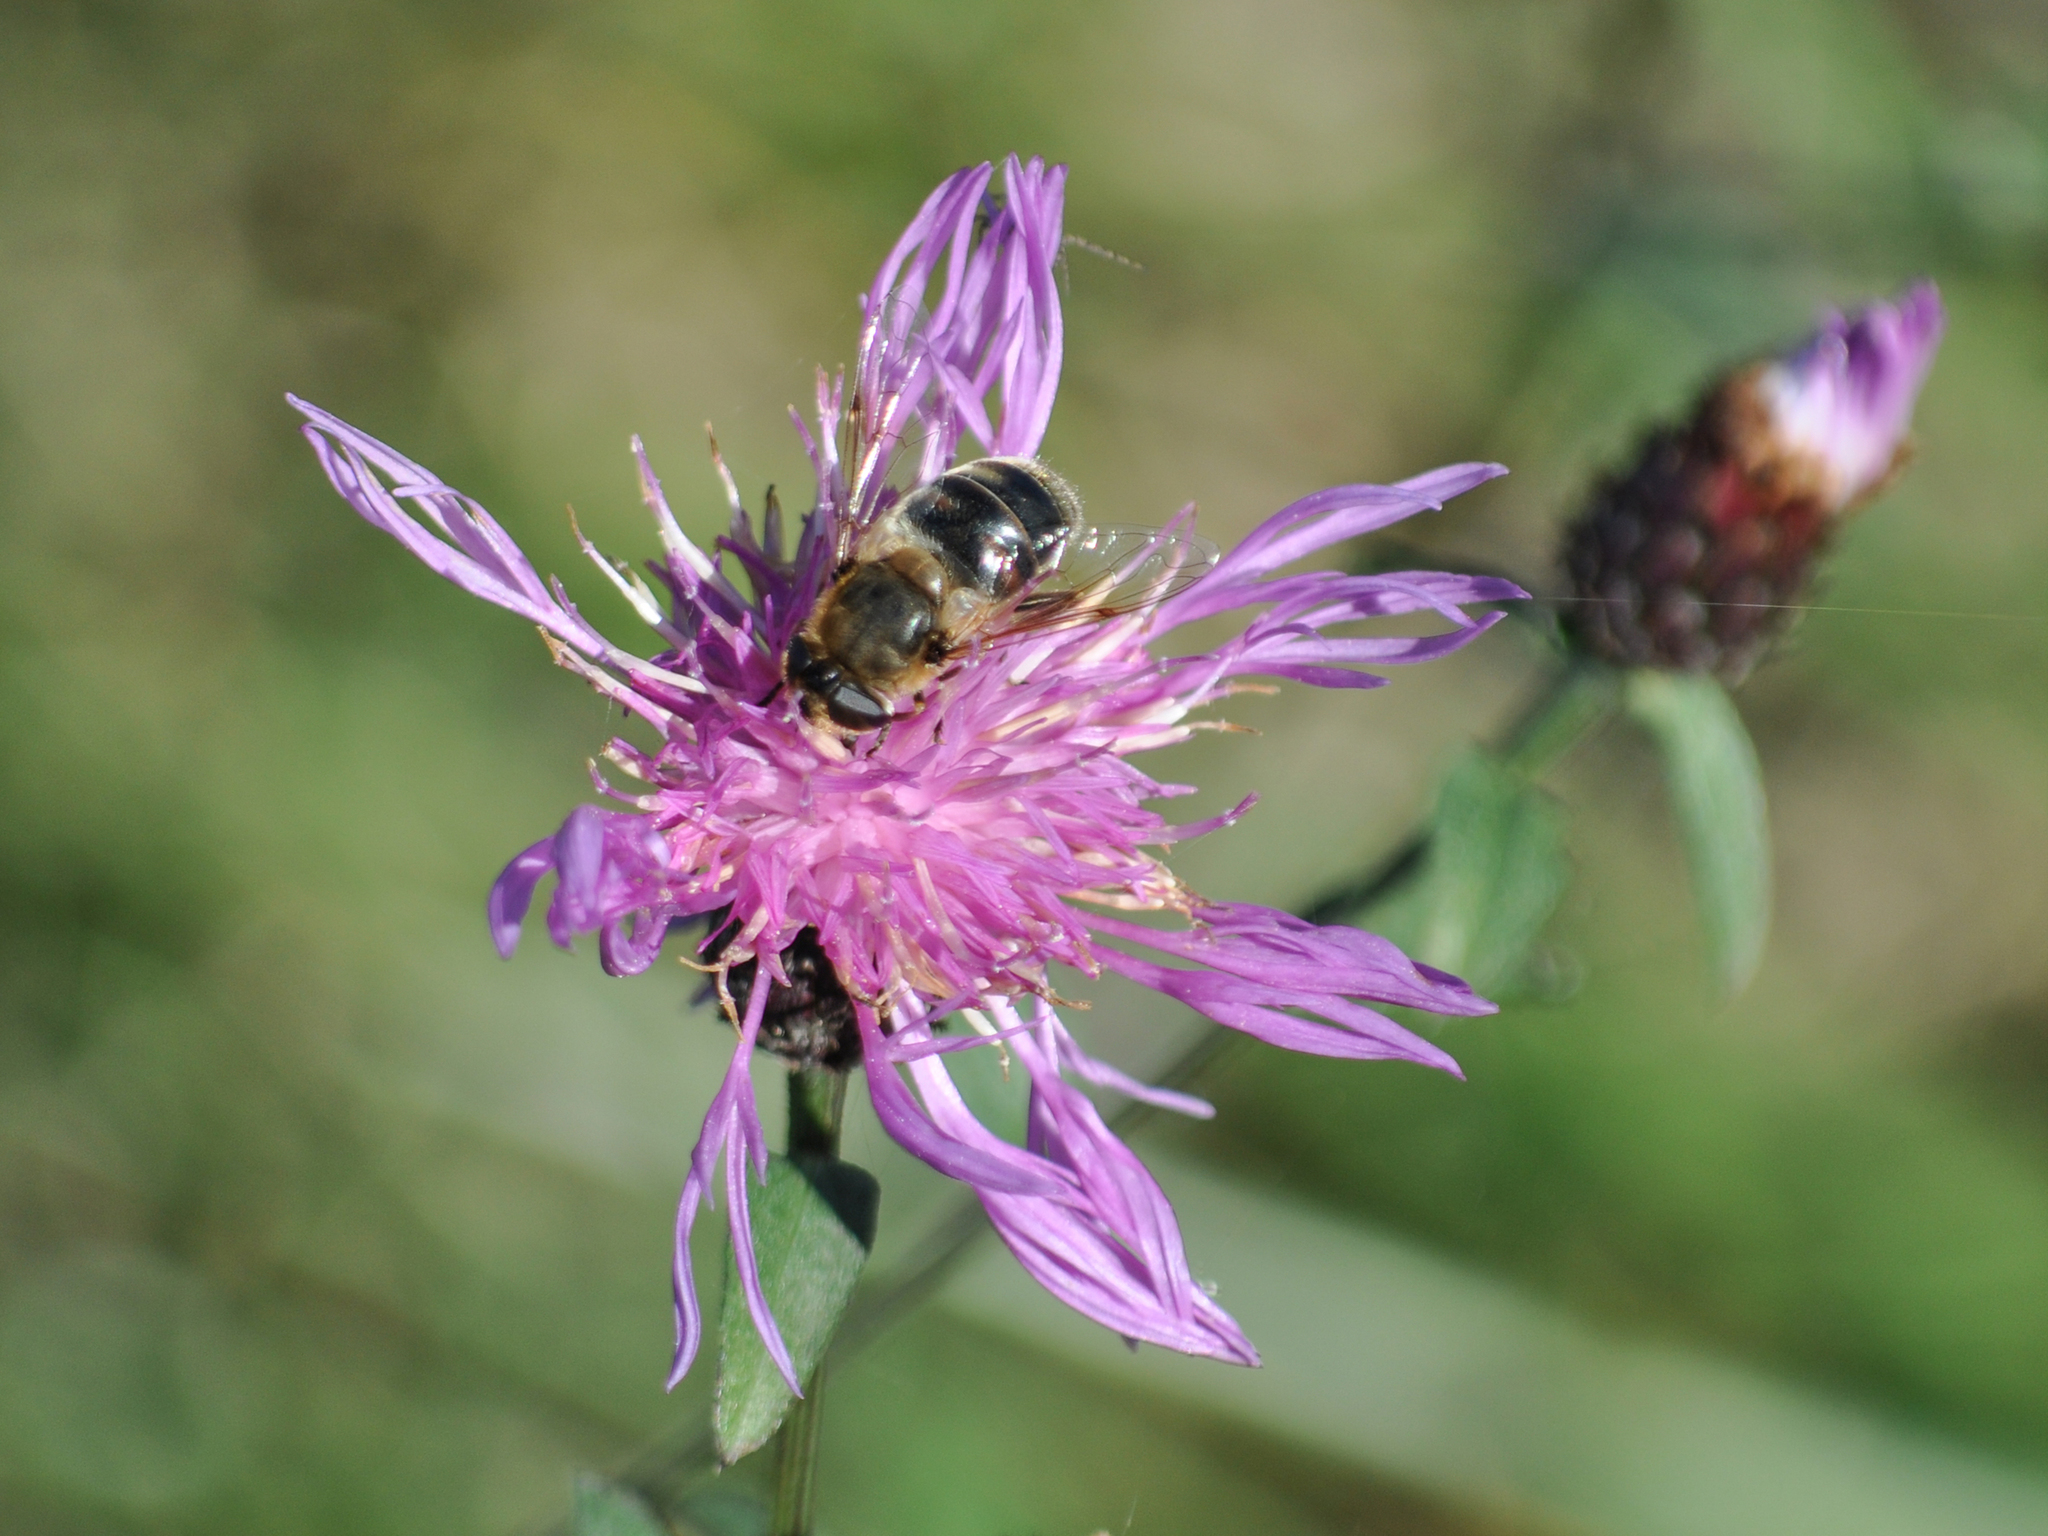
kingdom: Plantae
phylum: Tracheophyta
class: Magnoliopsida
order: Asterales
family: Asteraceae
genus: Centaurea
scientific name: Centaurea nigrescens
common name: Tyrol knapweed
